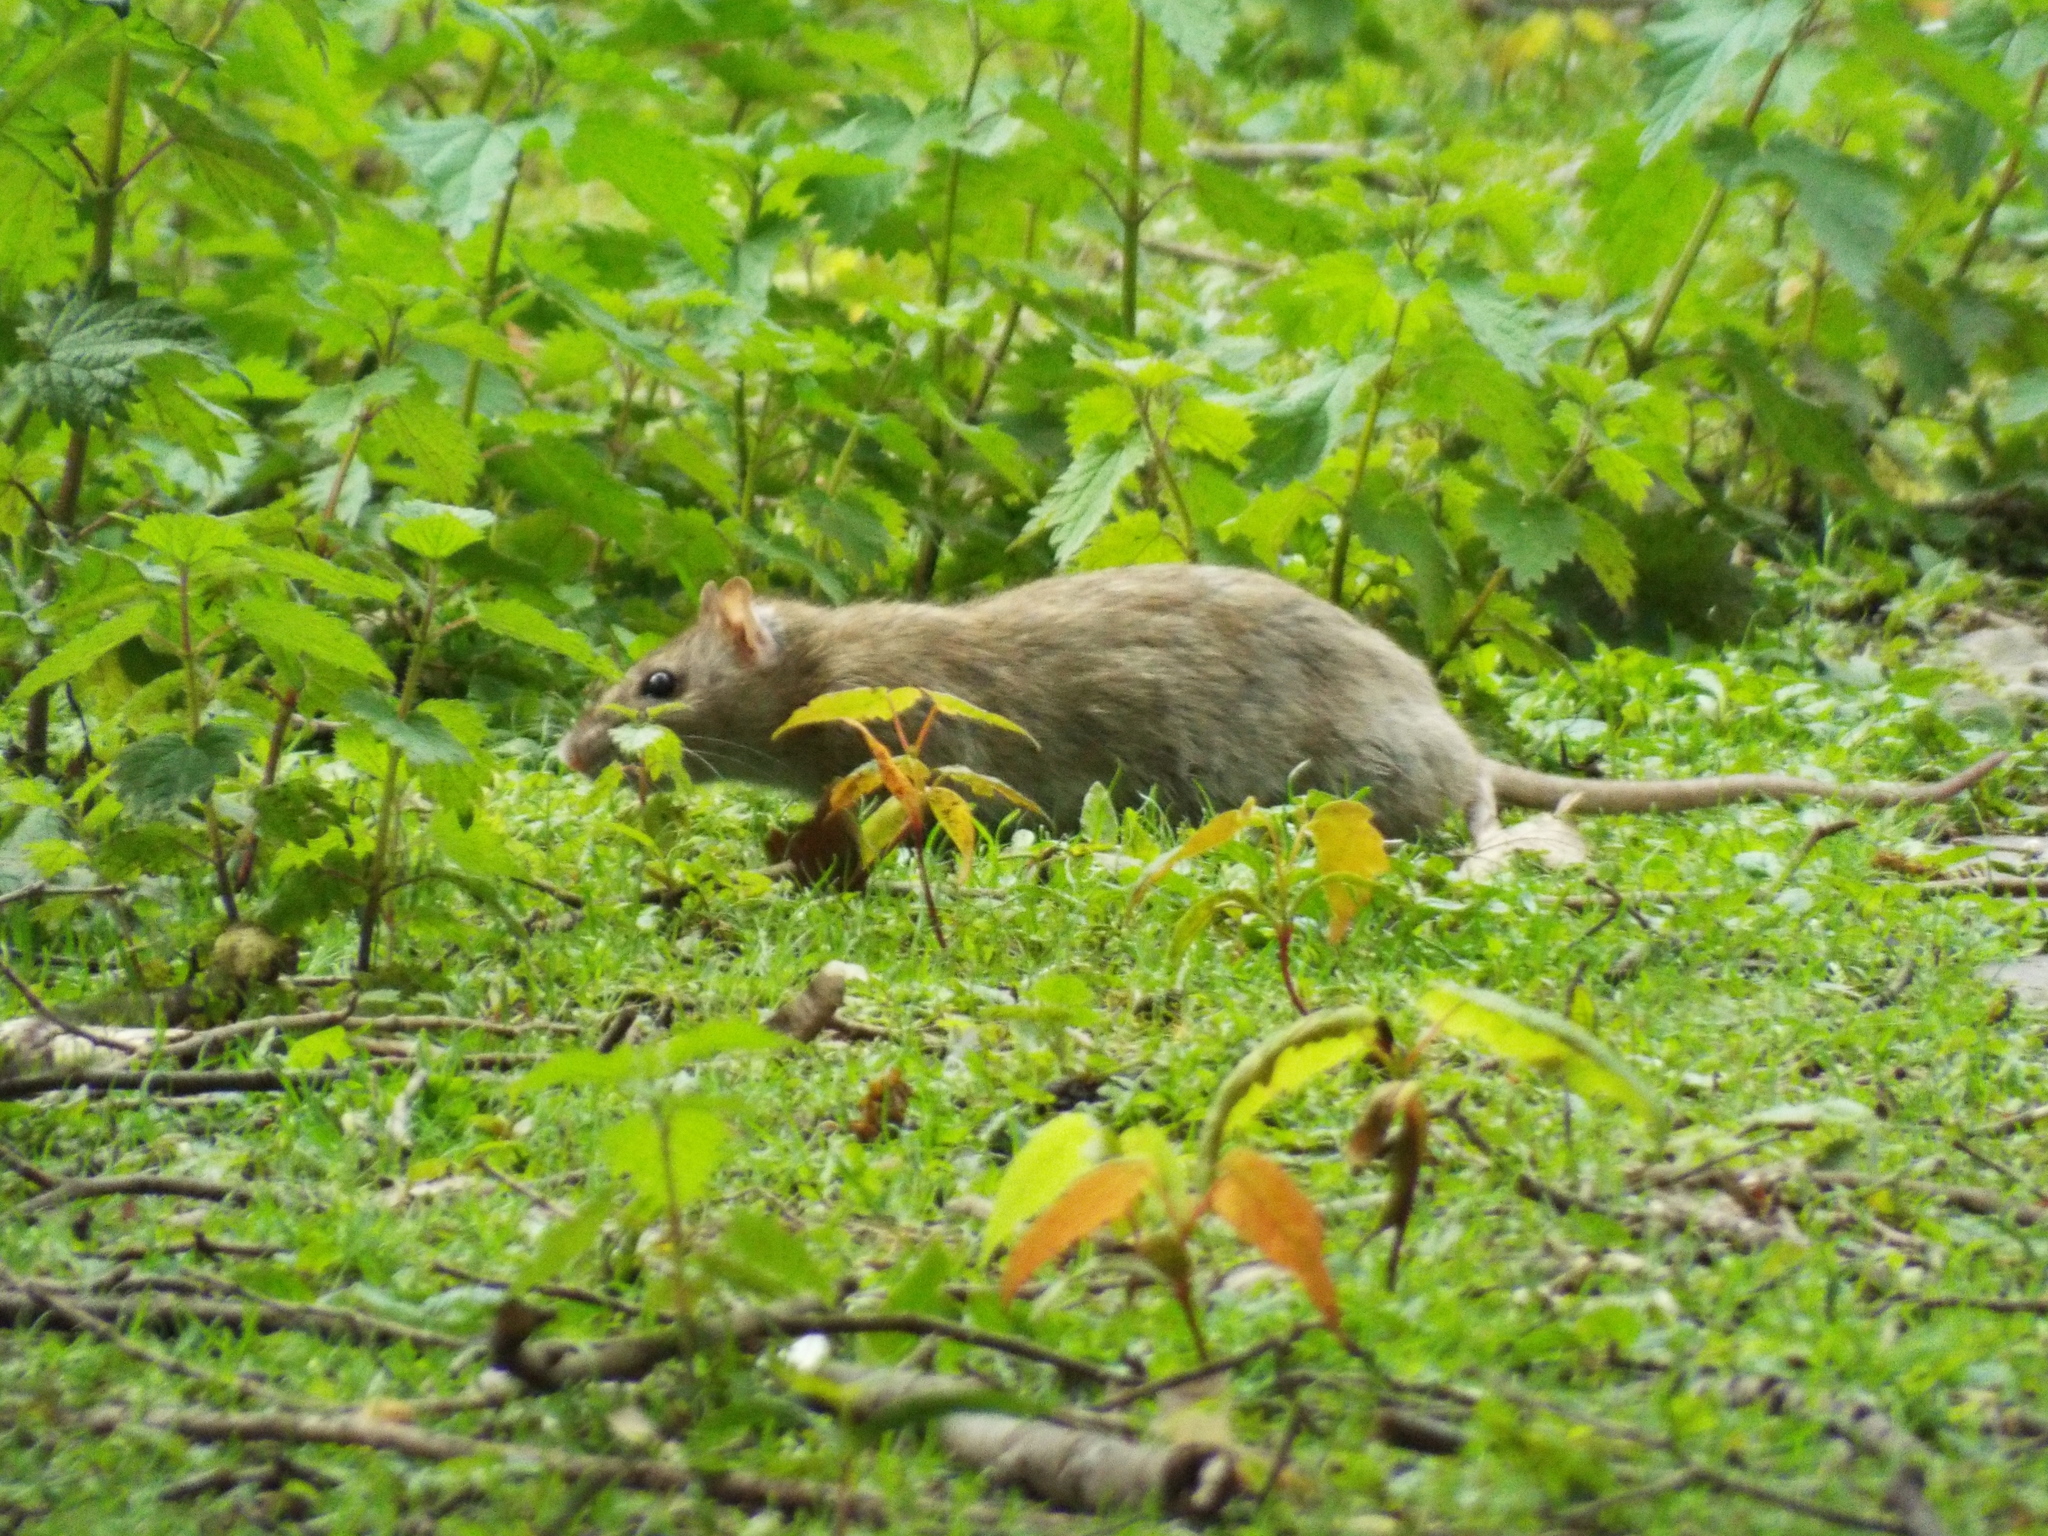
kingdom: Animalia
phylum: Chordata
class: Mammalia
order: Rodentia
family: Muridae
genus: Rattus
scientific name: Rattus norvegicus
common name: Brown rat
